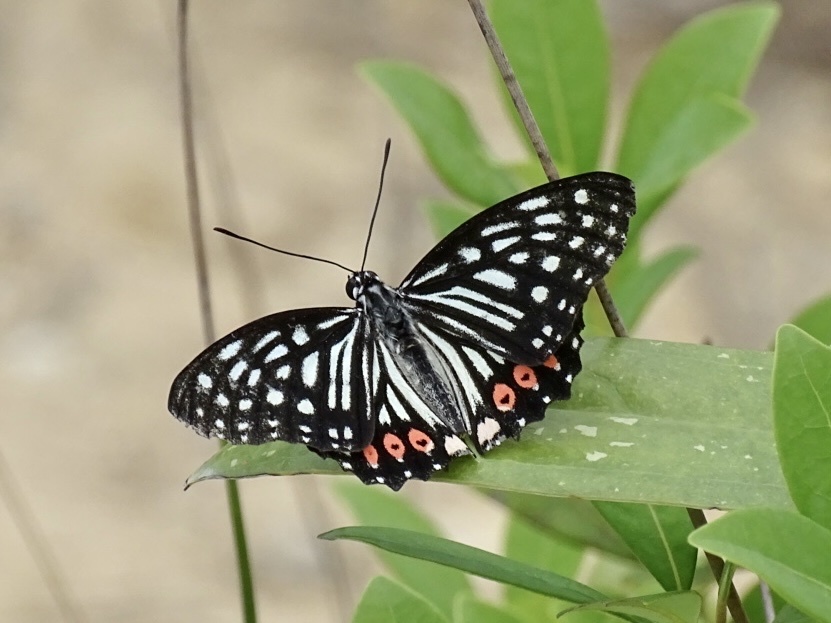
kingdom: Animalia
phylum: Arthropoda
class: Insecta
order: Lepidoptera
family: Nymphalidae
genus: Hestina
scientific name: Hestina assimilis
